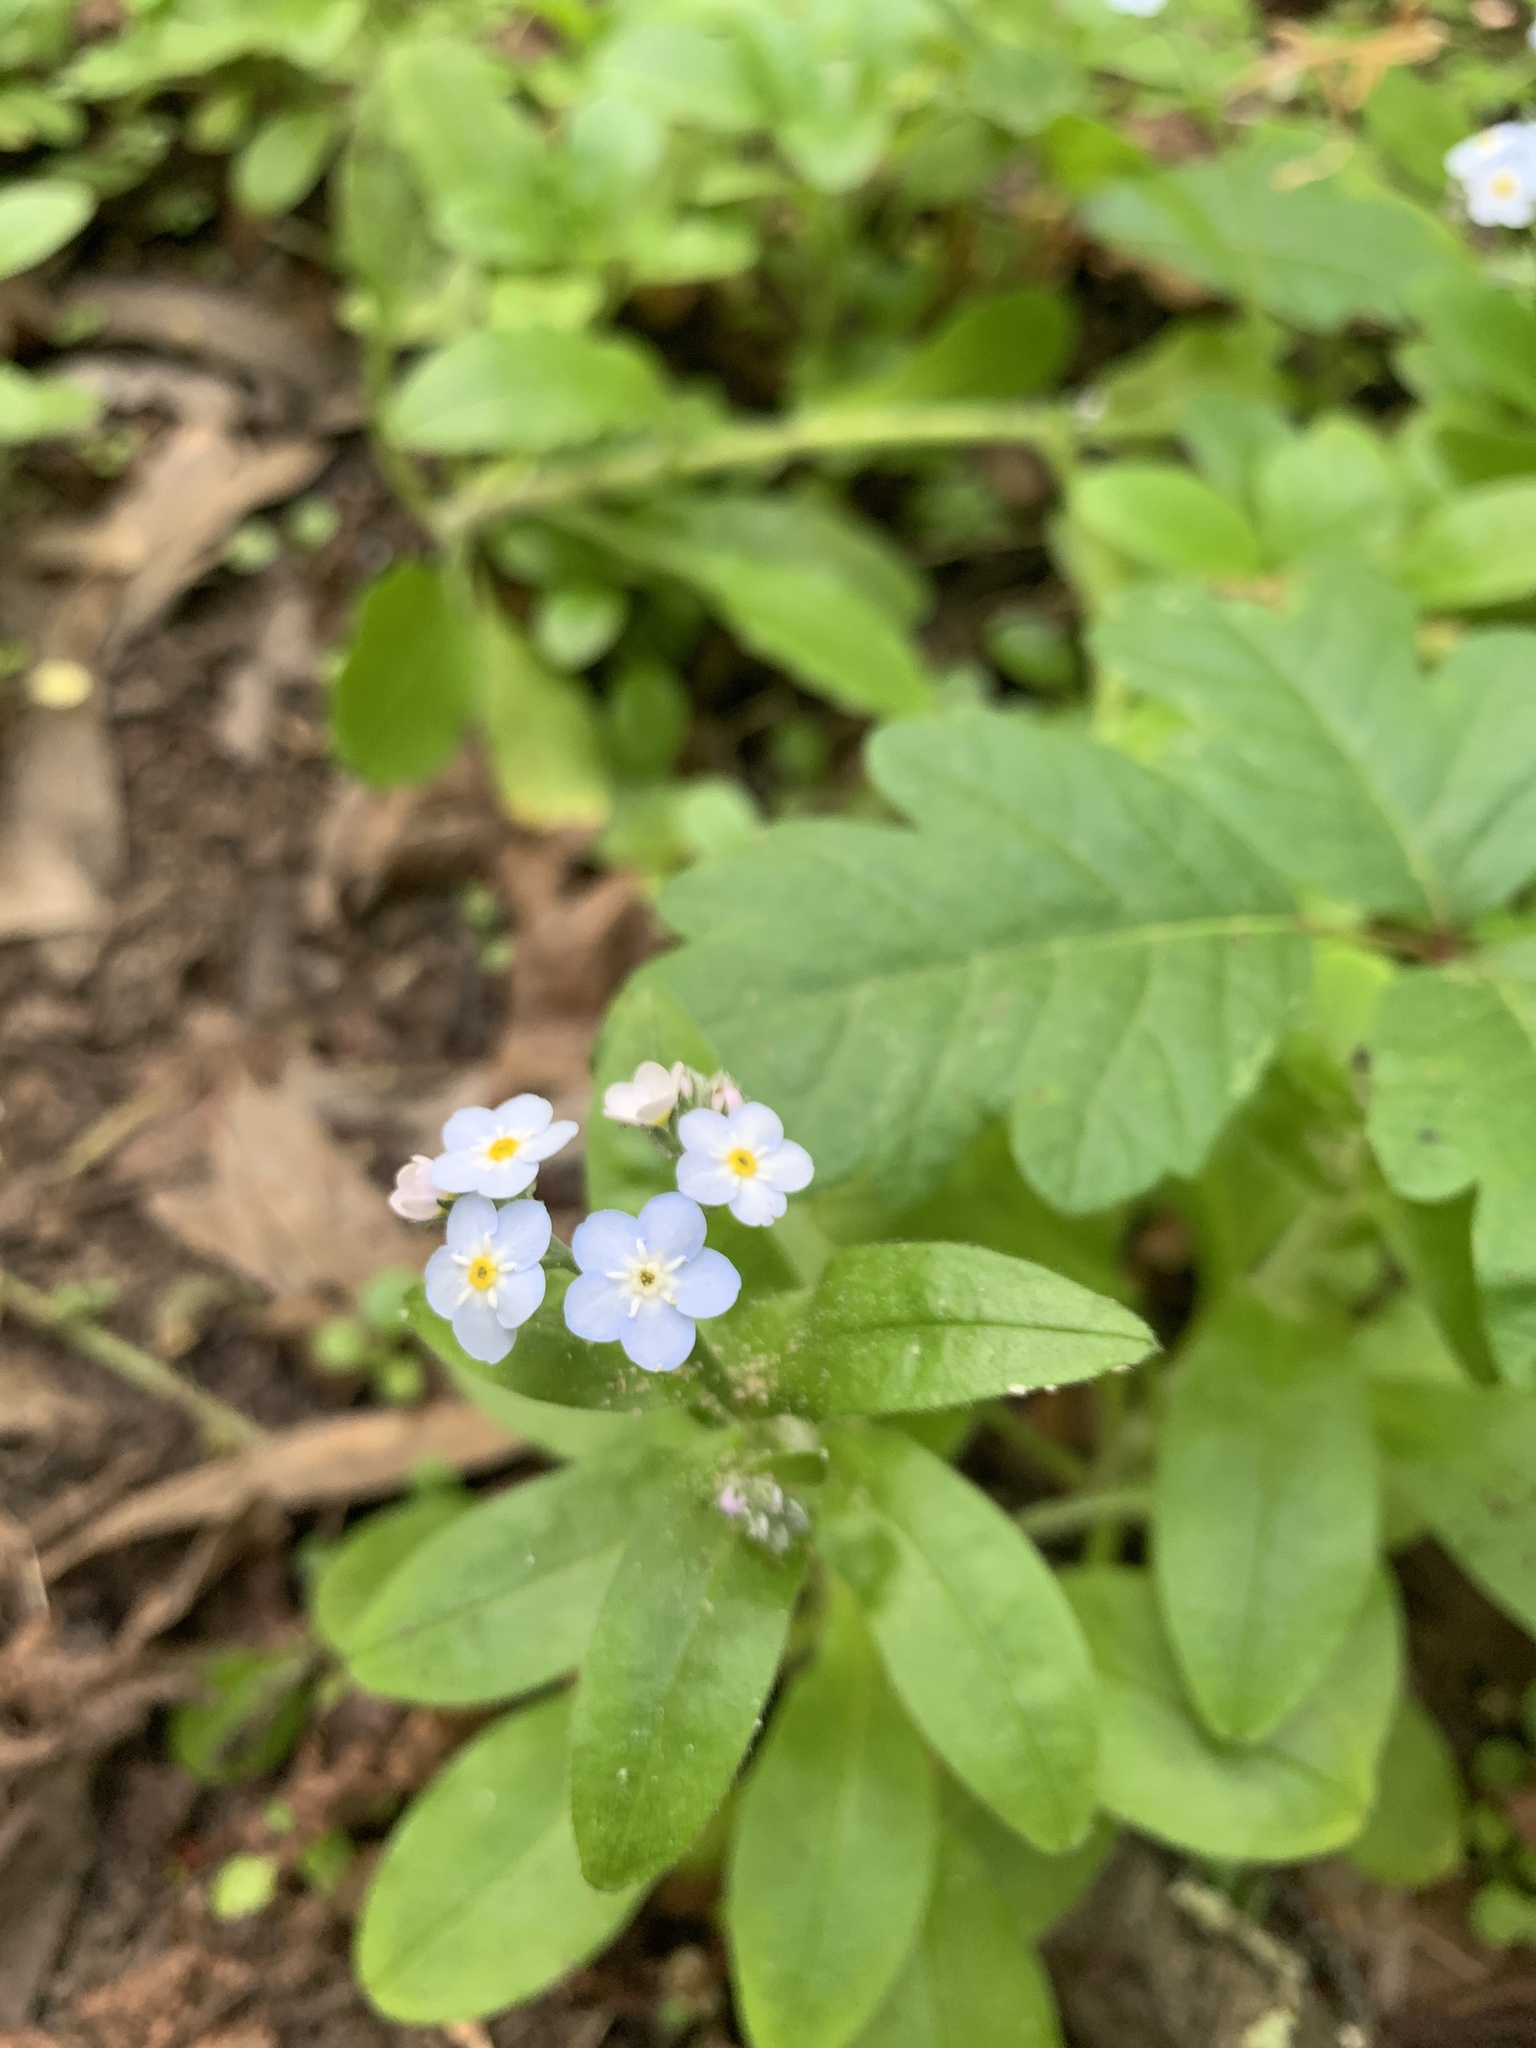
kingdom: Plantae
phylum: Tracheophyta
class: Magnoliopsida
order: Boraginales
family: Boraginaceae
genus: Myosotis
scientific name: Myosotis latifolia
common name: Broadleaf forget-me-not
